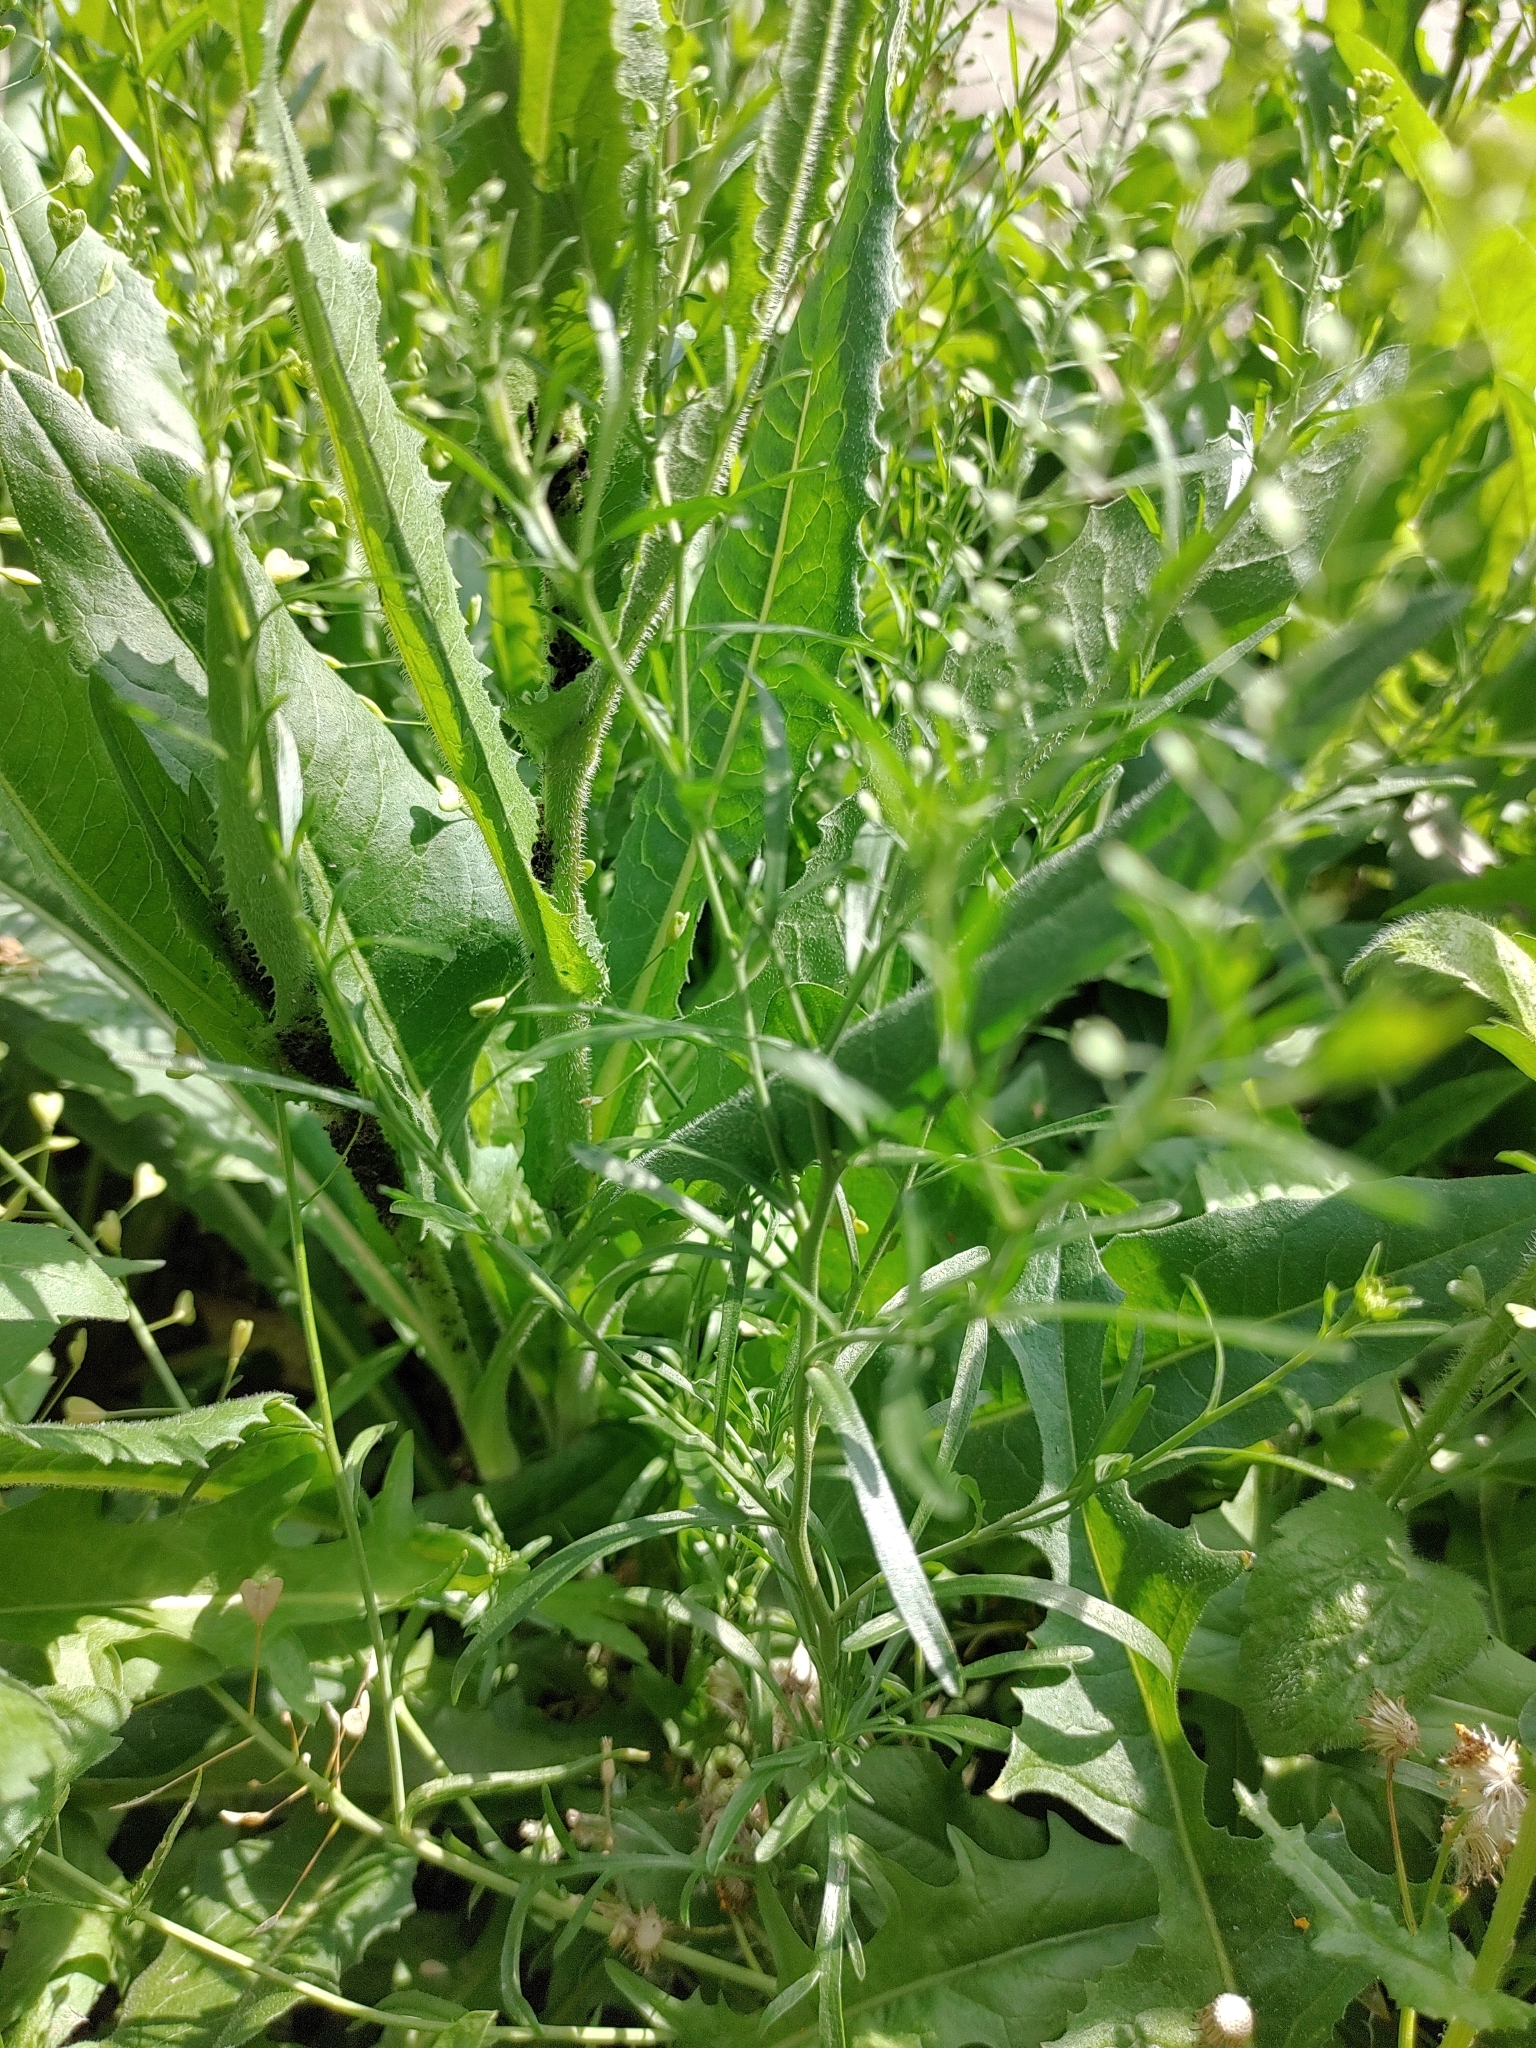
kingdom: Plantae
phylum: Tracheophyta
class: Magnoliopsida
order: Brassicales
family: Brassicaceae
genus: Lepidium
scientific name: Lepidium ruderale
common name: Narrow-leaved pepperwort
